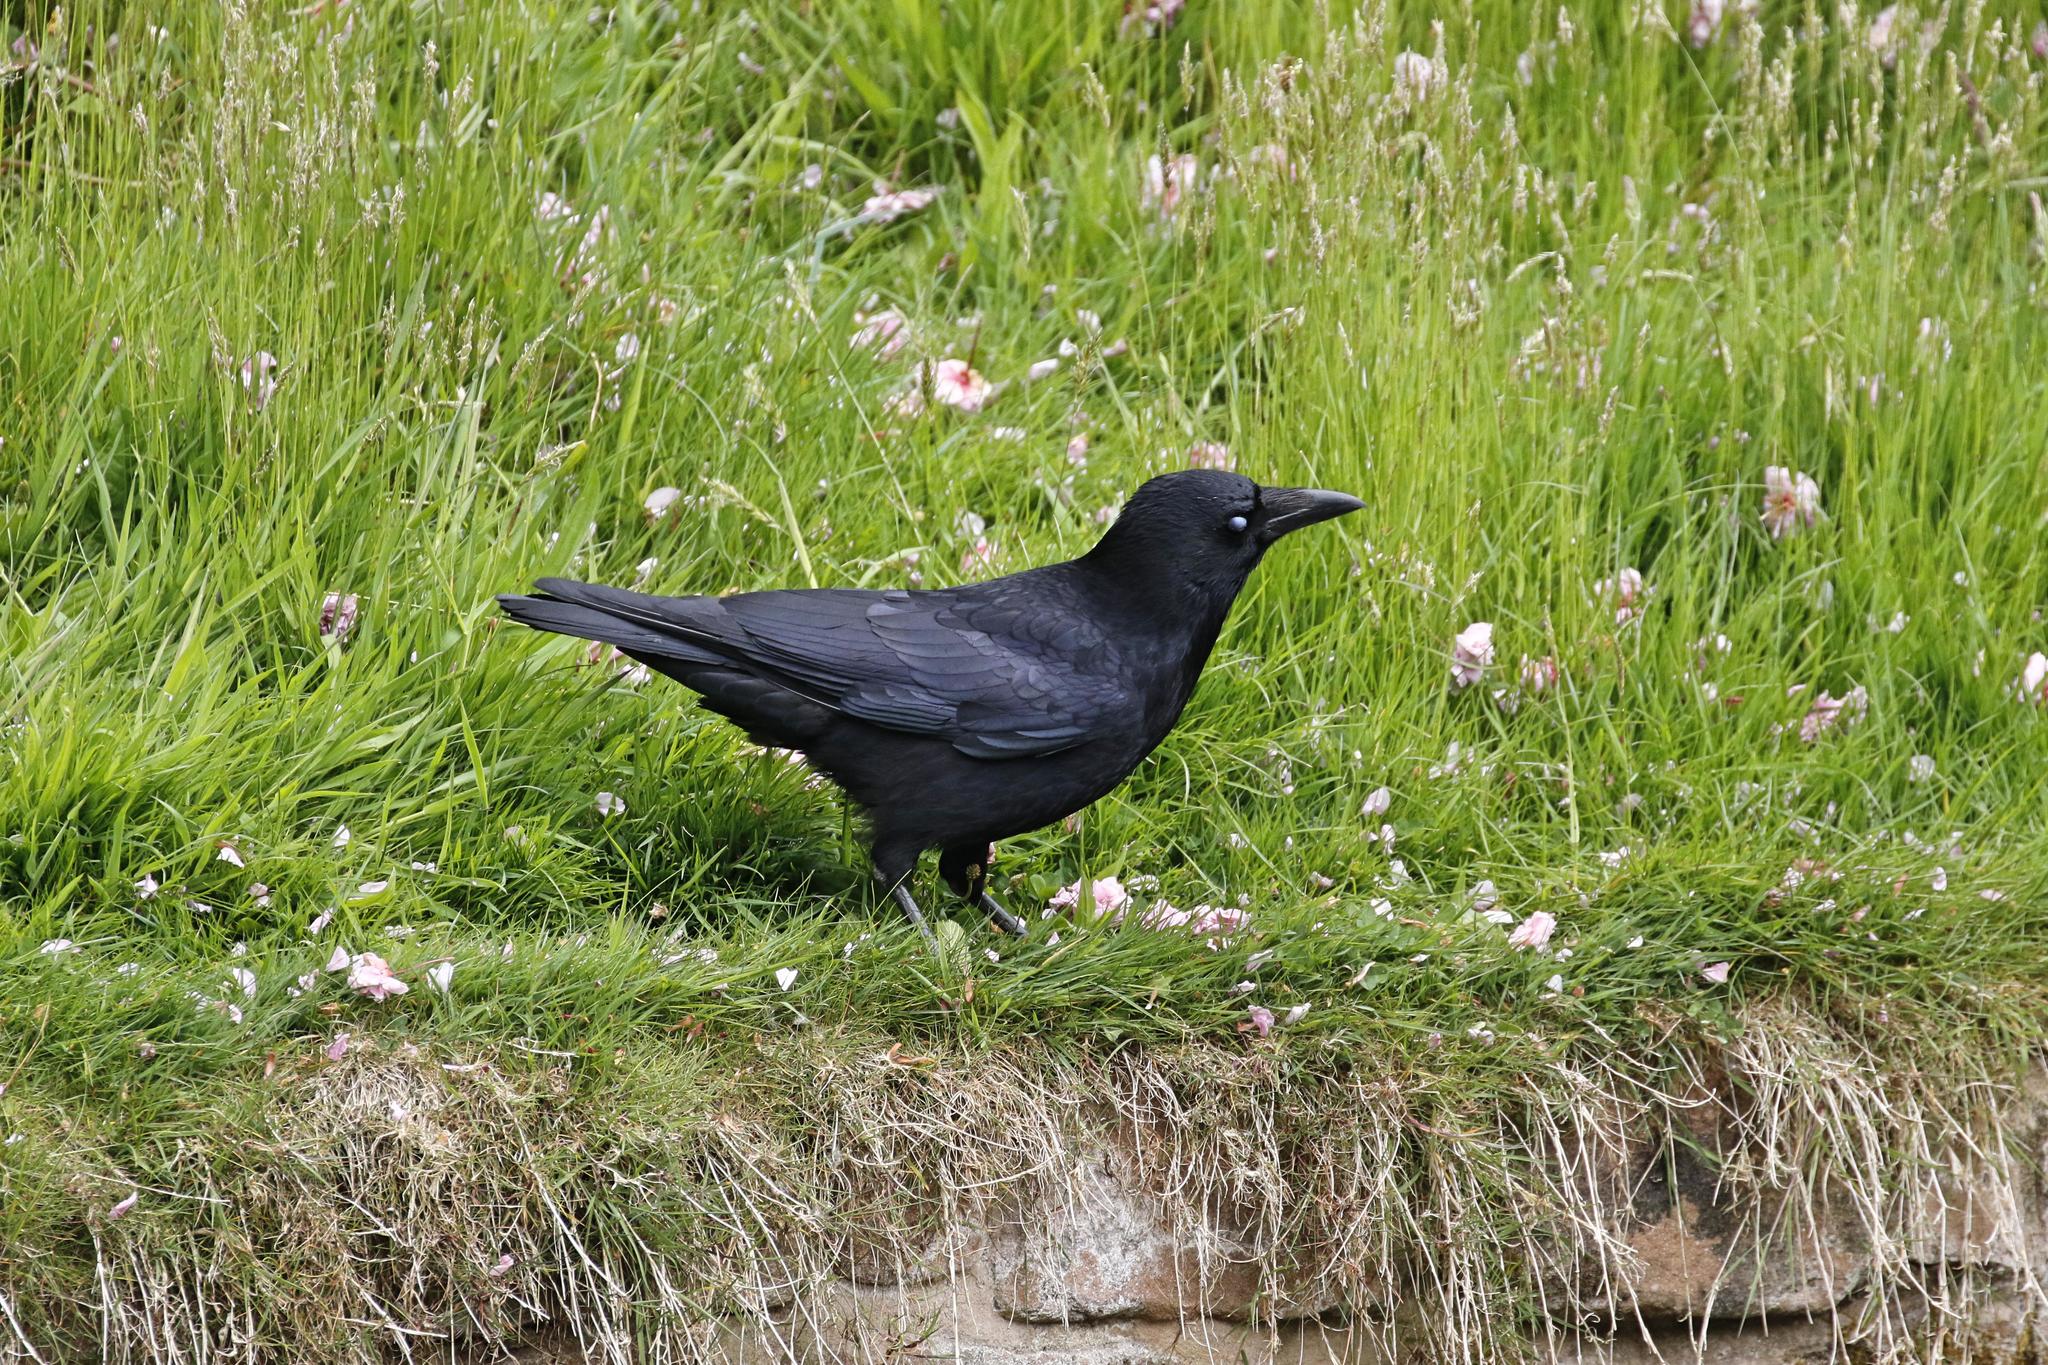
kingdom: Animalia
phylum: Chordata
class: Aves
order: Passeriformes
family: Corvidae
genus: Corvus
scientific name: Corvus corone
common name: Carrion crow
